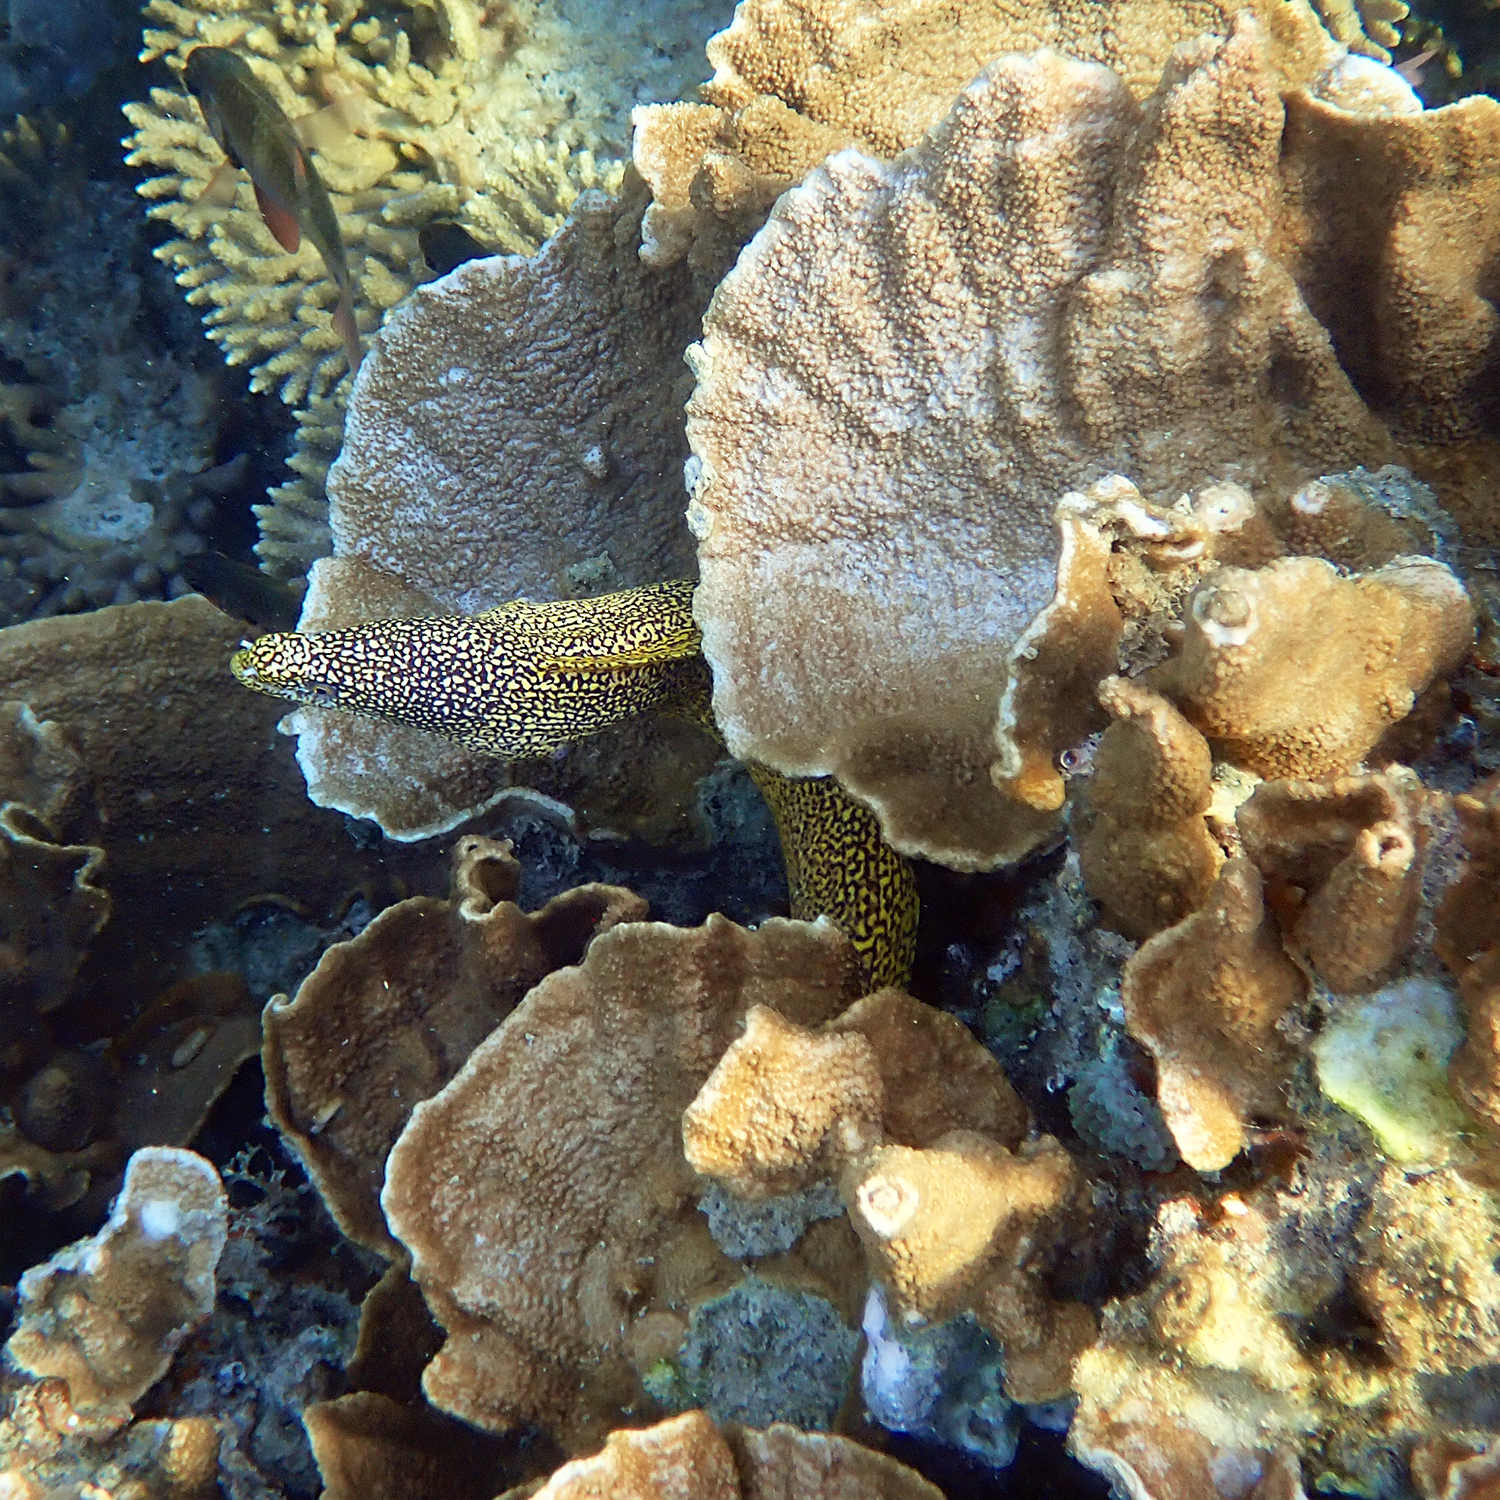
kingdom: Animalia
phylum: Chordata
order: Anguilliformes
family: Muraenidae
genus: Gymnothorax
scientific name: Gymnothorax eurostus
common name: Stout moray
